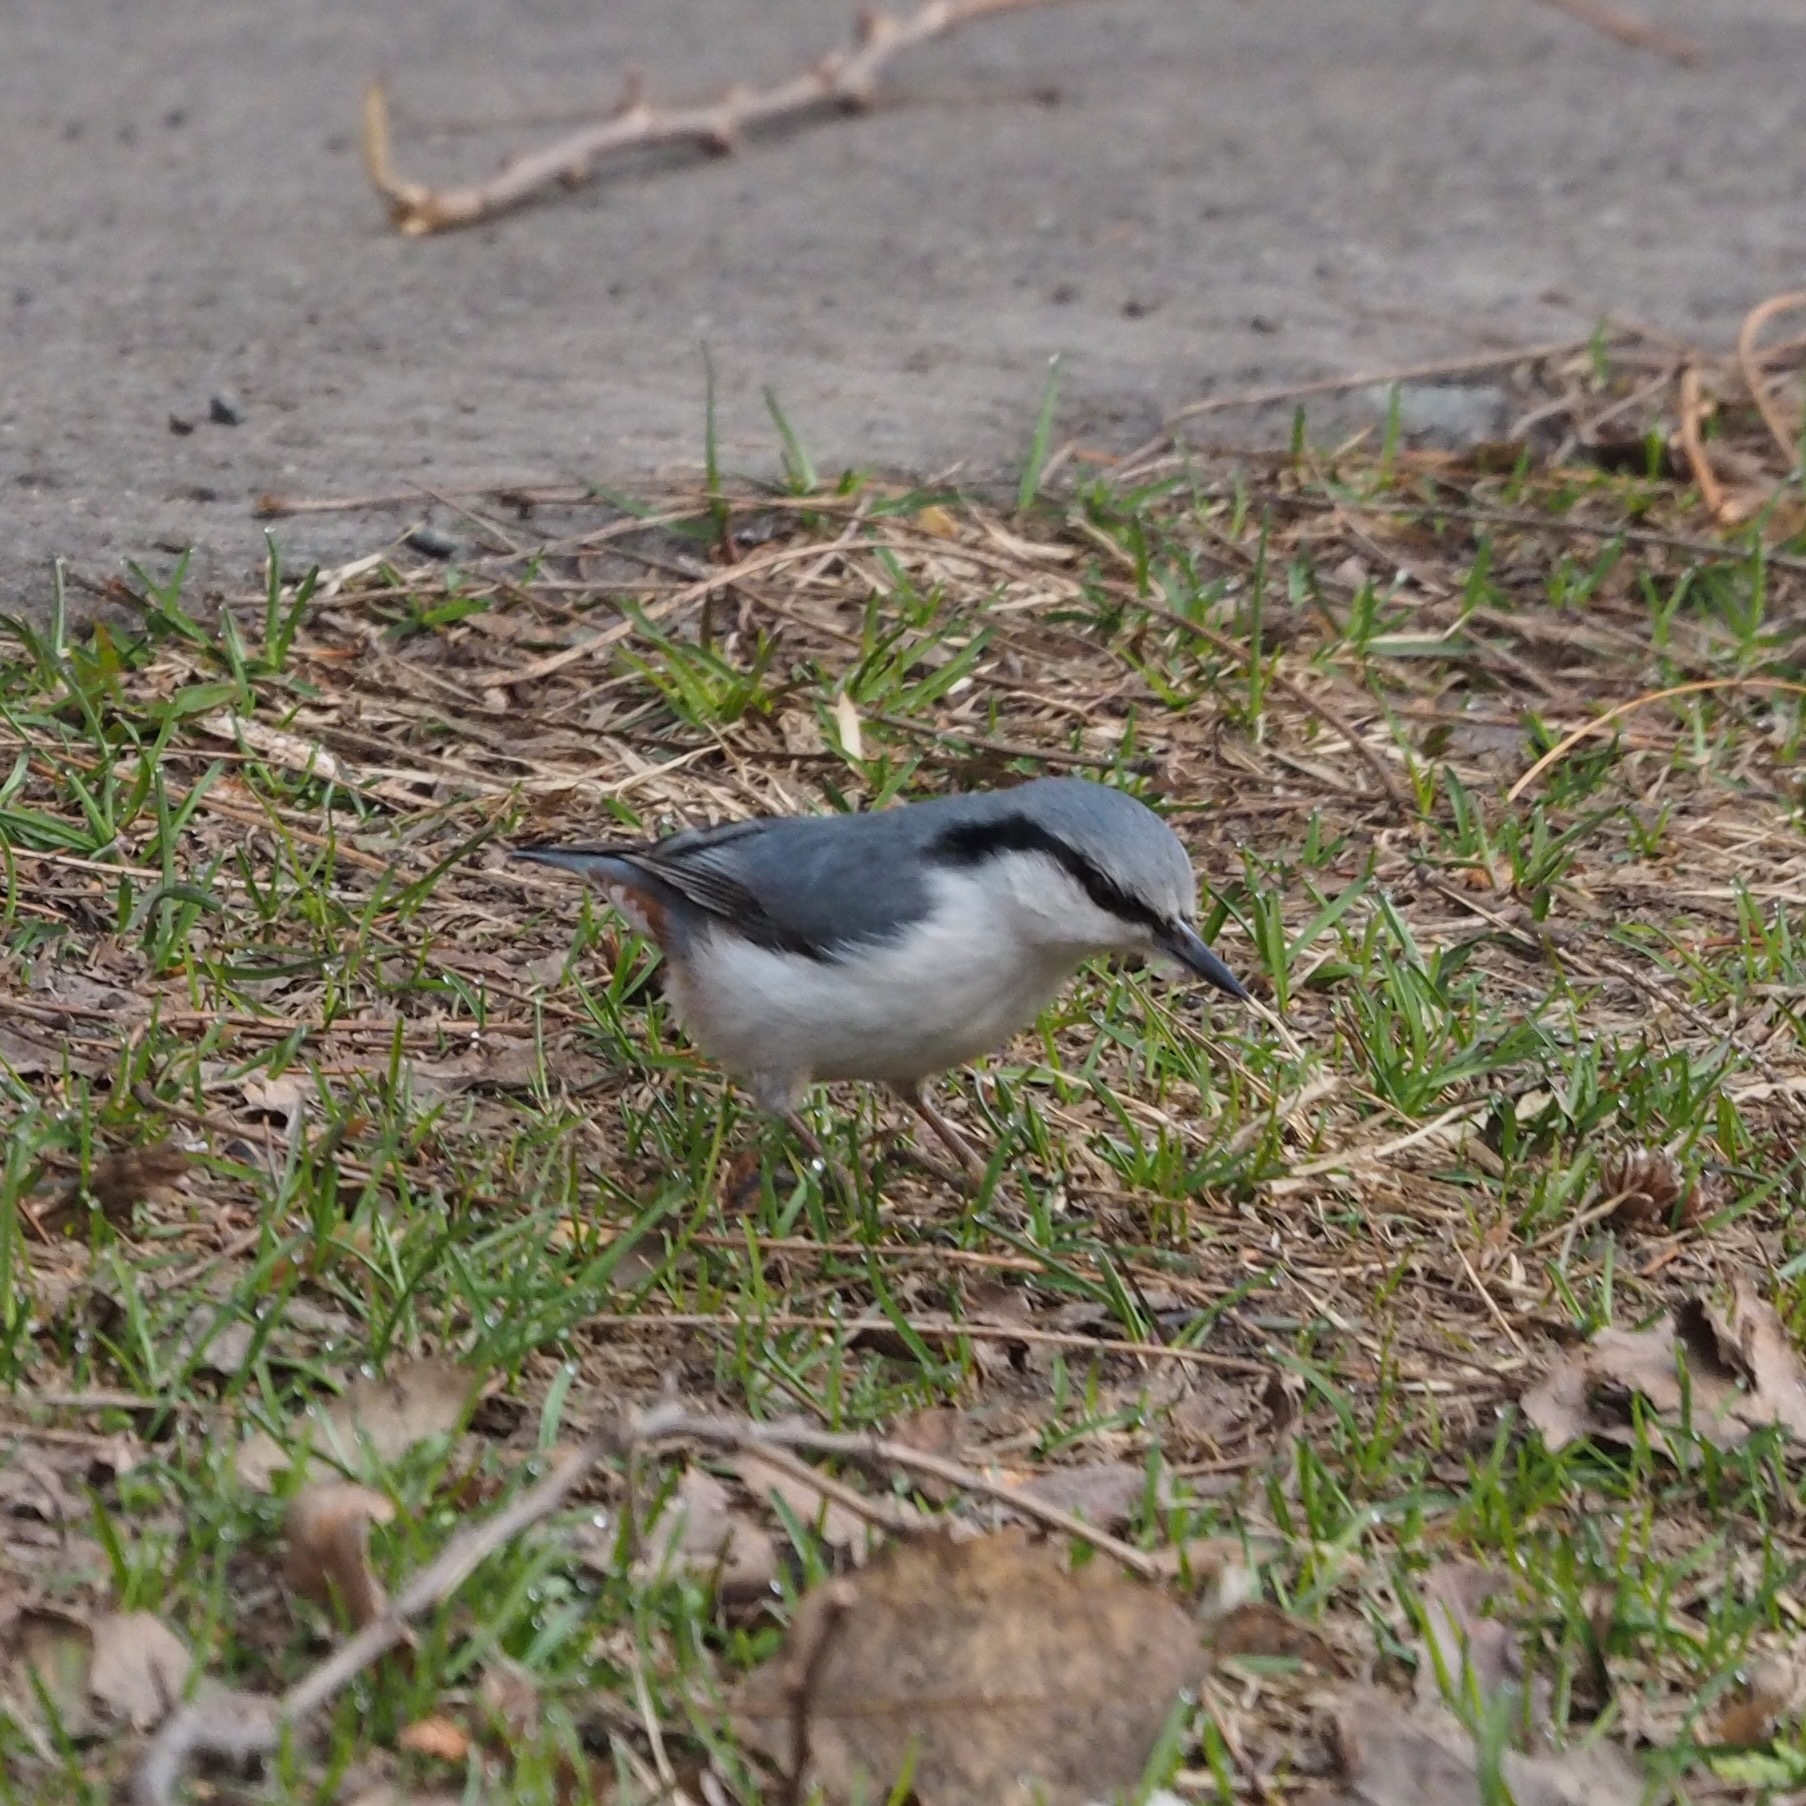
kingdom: Animalia
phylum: Chordata
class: Aves
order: Passeriformes
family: Sittidae
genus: Sitta
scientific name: Sitta europaea
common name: Eurasian nuthatch
